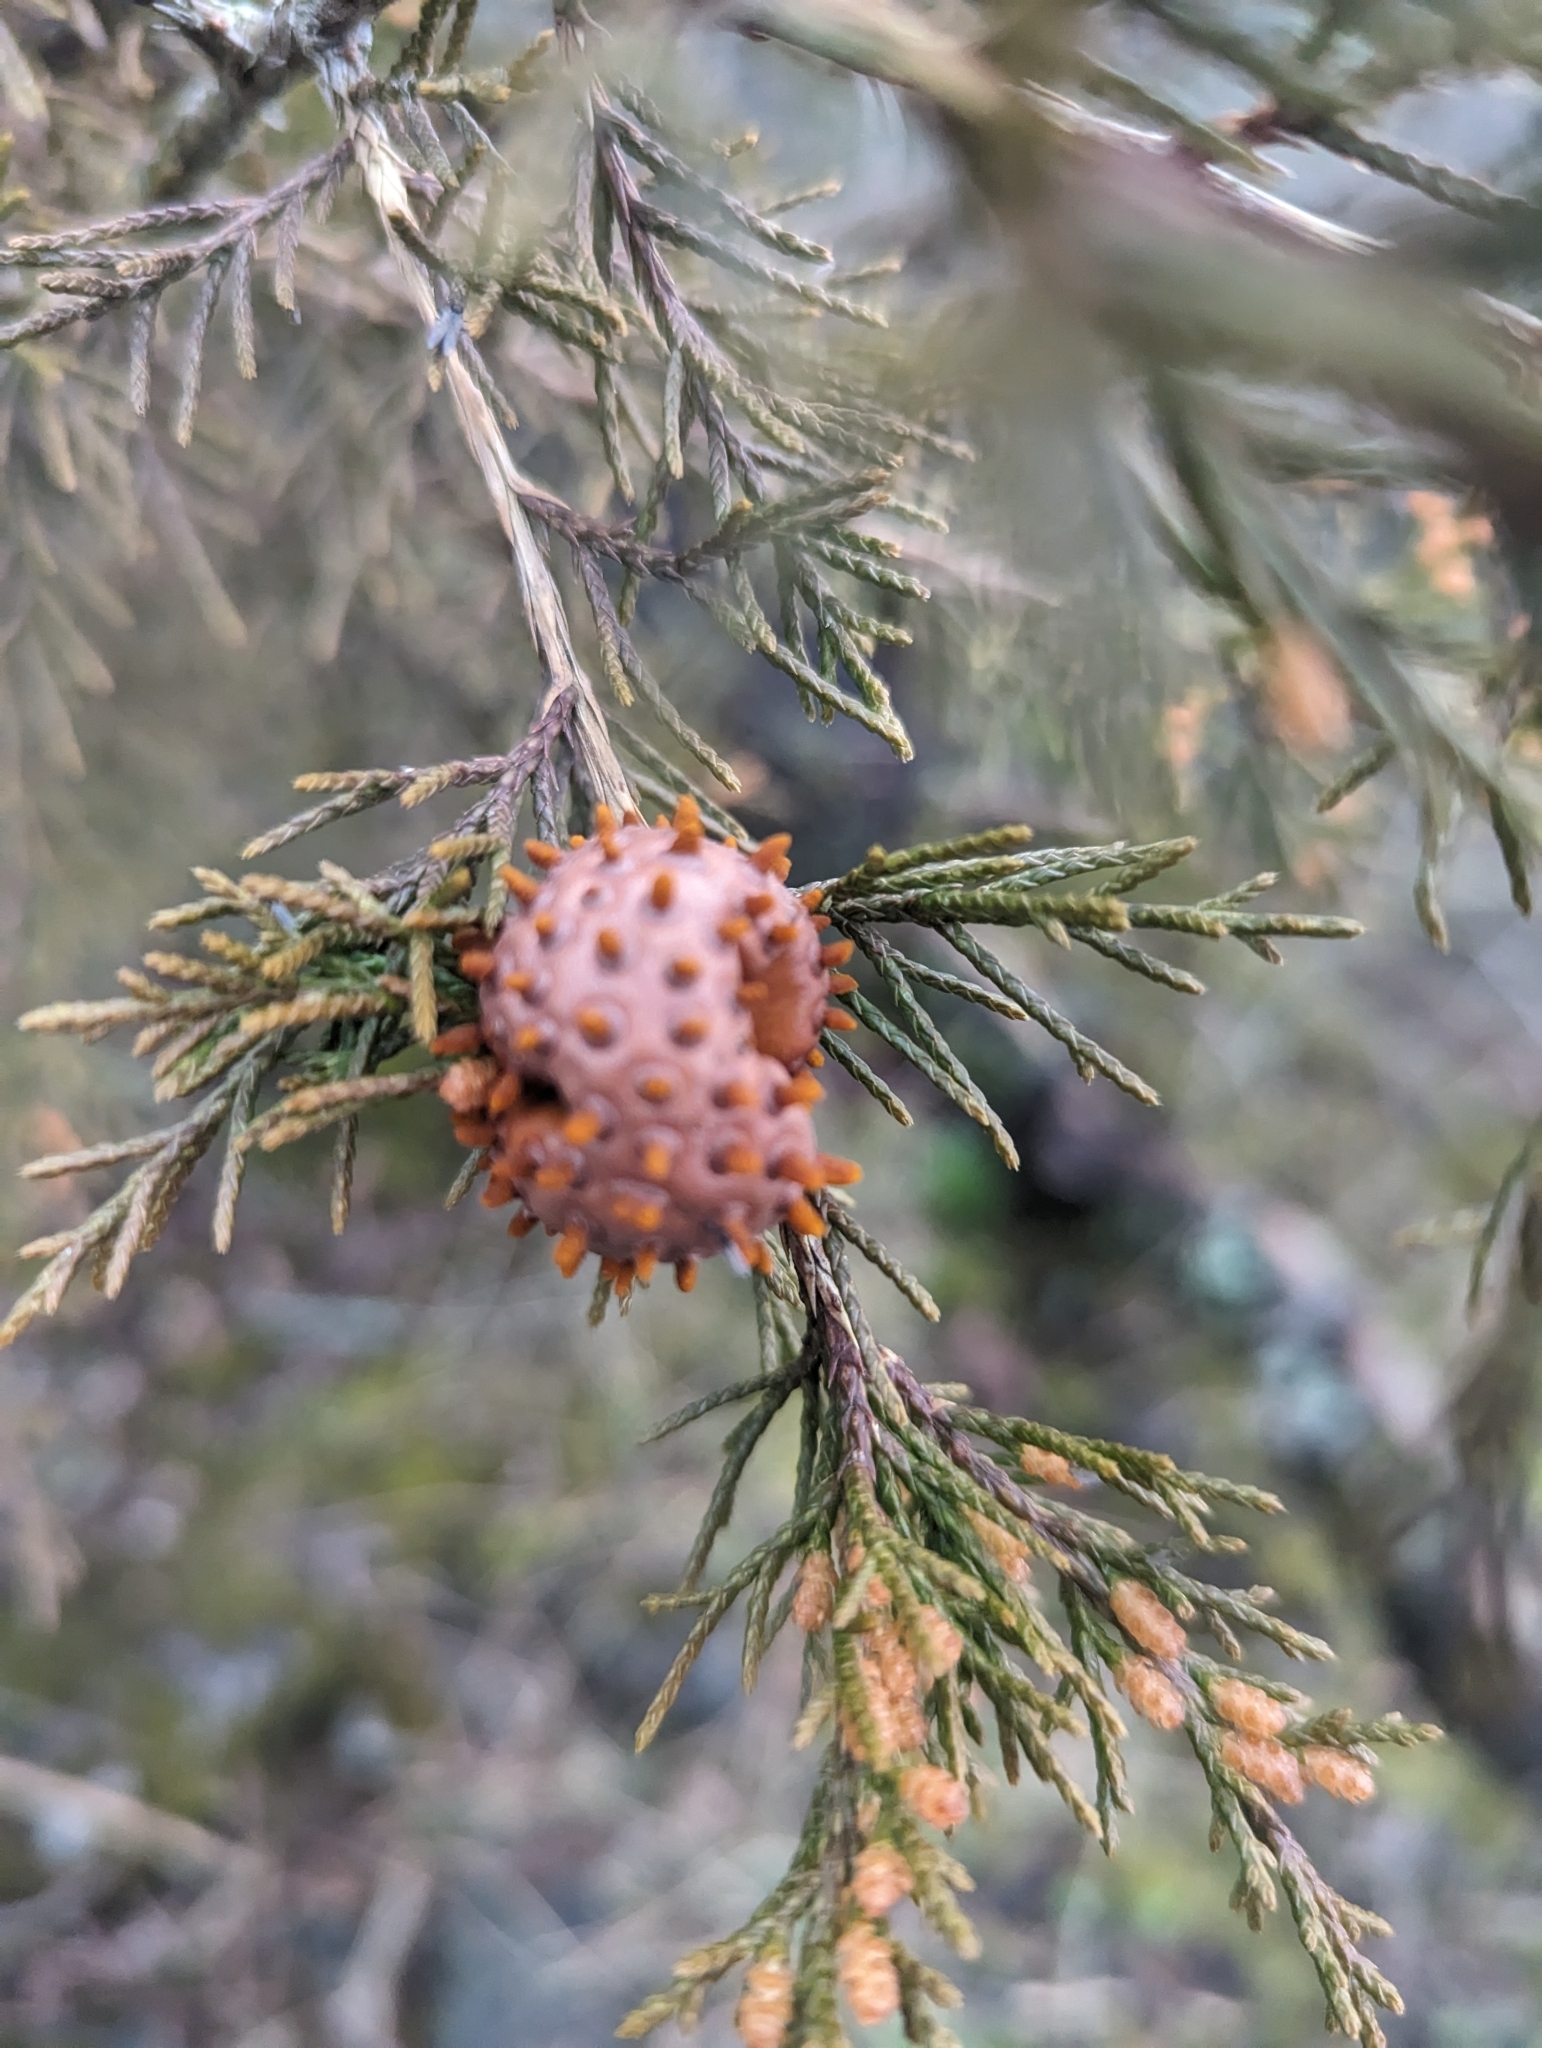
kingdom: Fungi
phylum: Basidiomycota
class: Pucciniomycetes
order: Pucciniales
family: Gymnosporangiaceae
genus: Gymnosporangium
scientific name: Gymnosporangium juniperi-virginianae
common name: Juniper-apple rust
